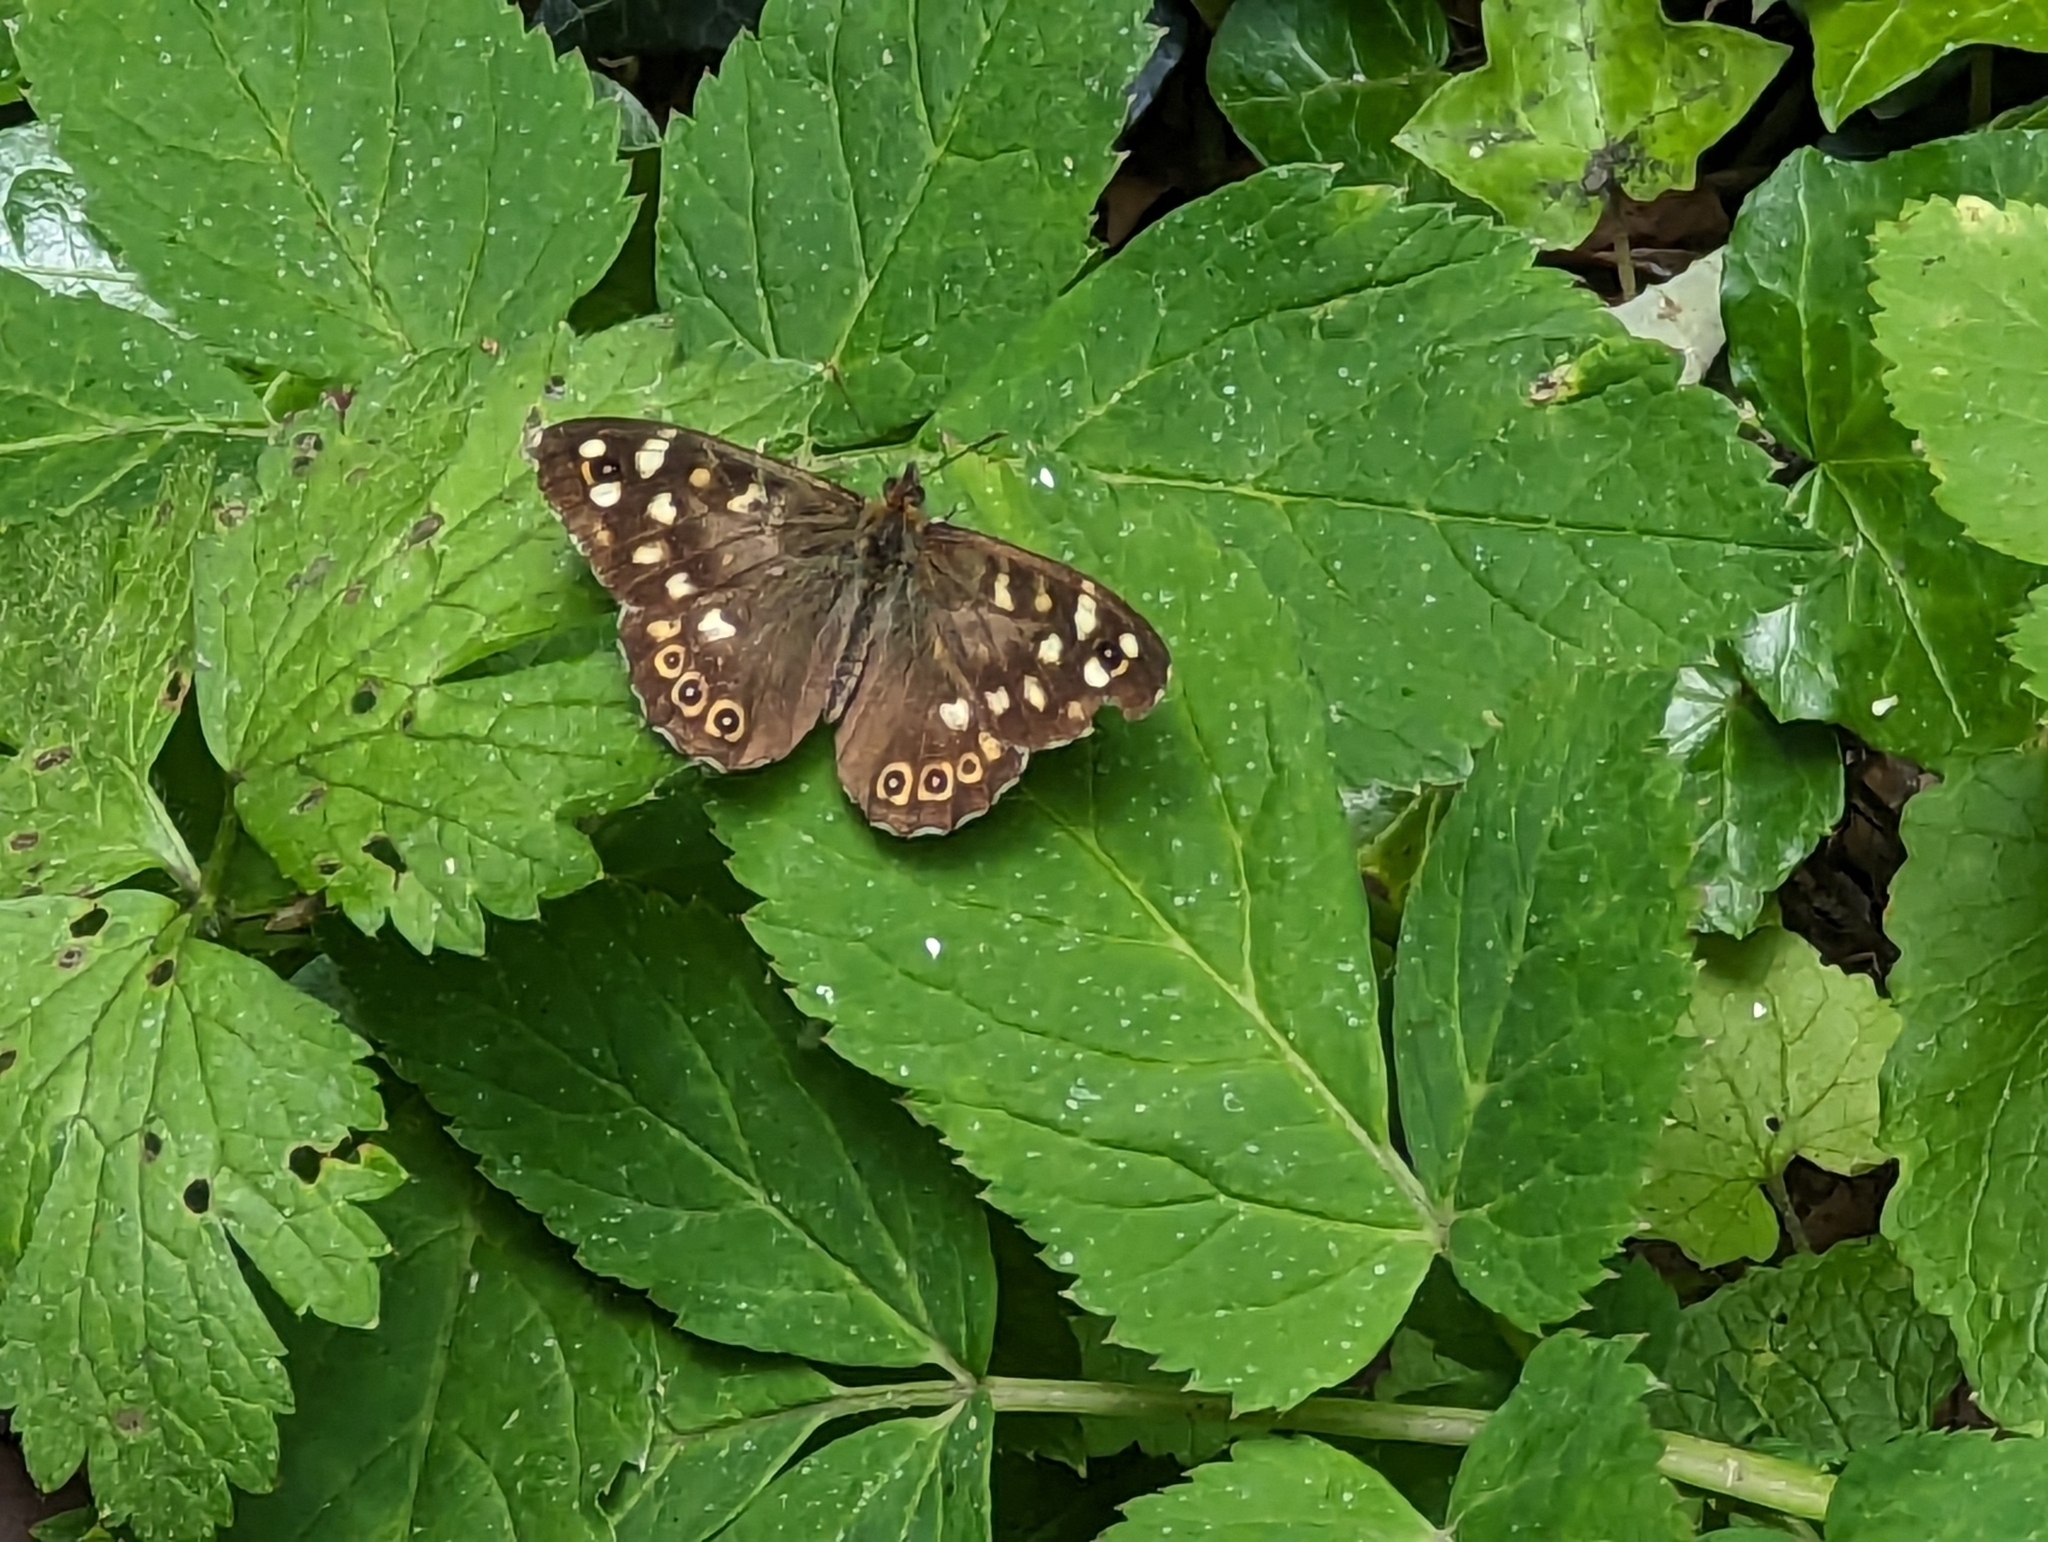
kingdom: Animalia
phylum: Arthropoda
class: Insecta
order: Lepidoptera
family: Nymphalidae
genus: Pararge
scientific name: Pararge aegeria
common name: Speckled wood
